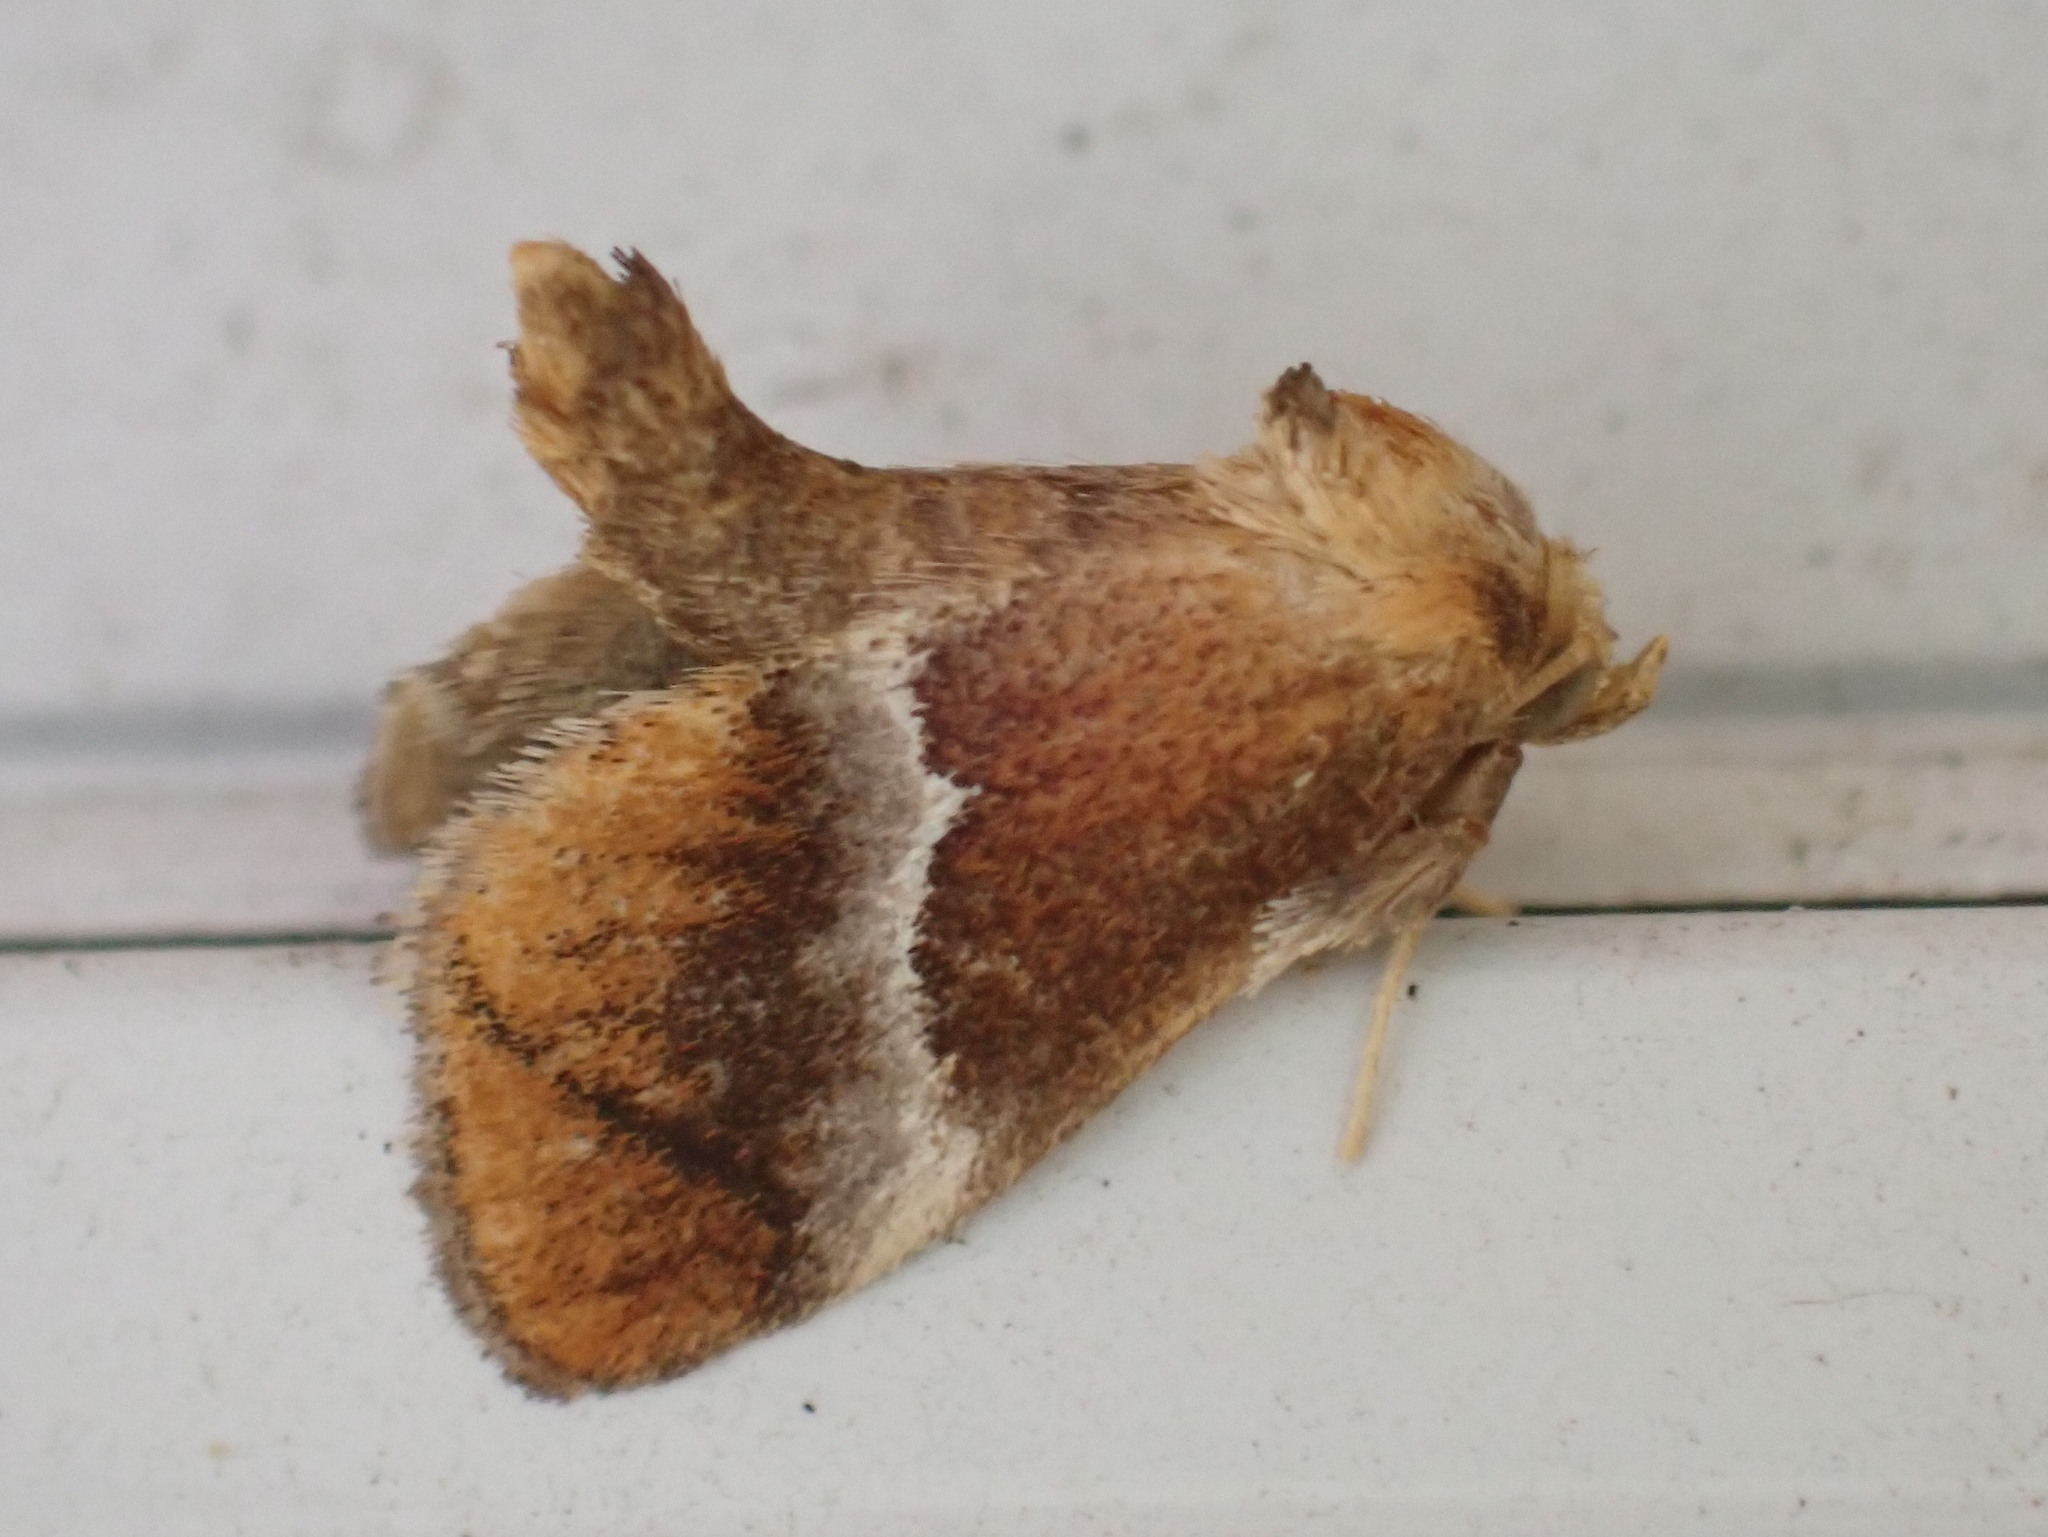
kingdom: Animalia
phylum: Arthropoda
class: Insecta
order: Lepidoptera
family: Limacodidae
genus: Lithacodes
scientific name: Lithacodes fasciola
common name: Yellow-shouldered slug moth
